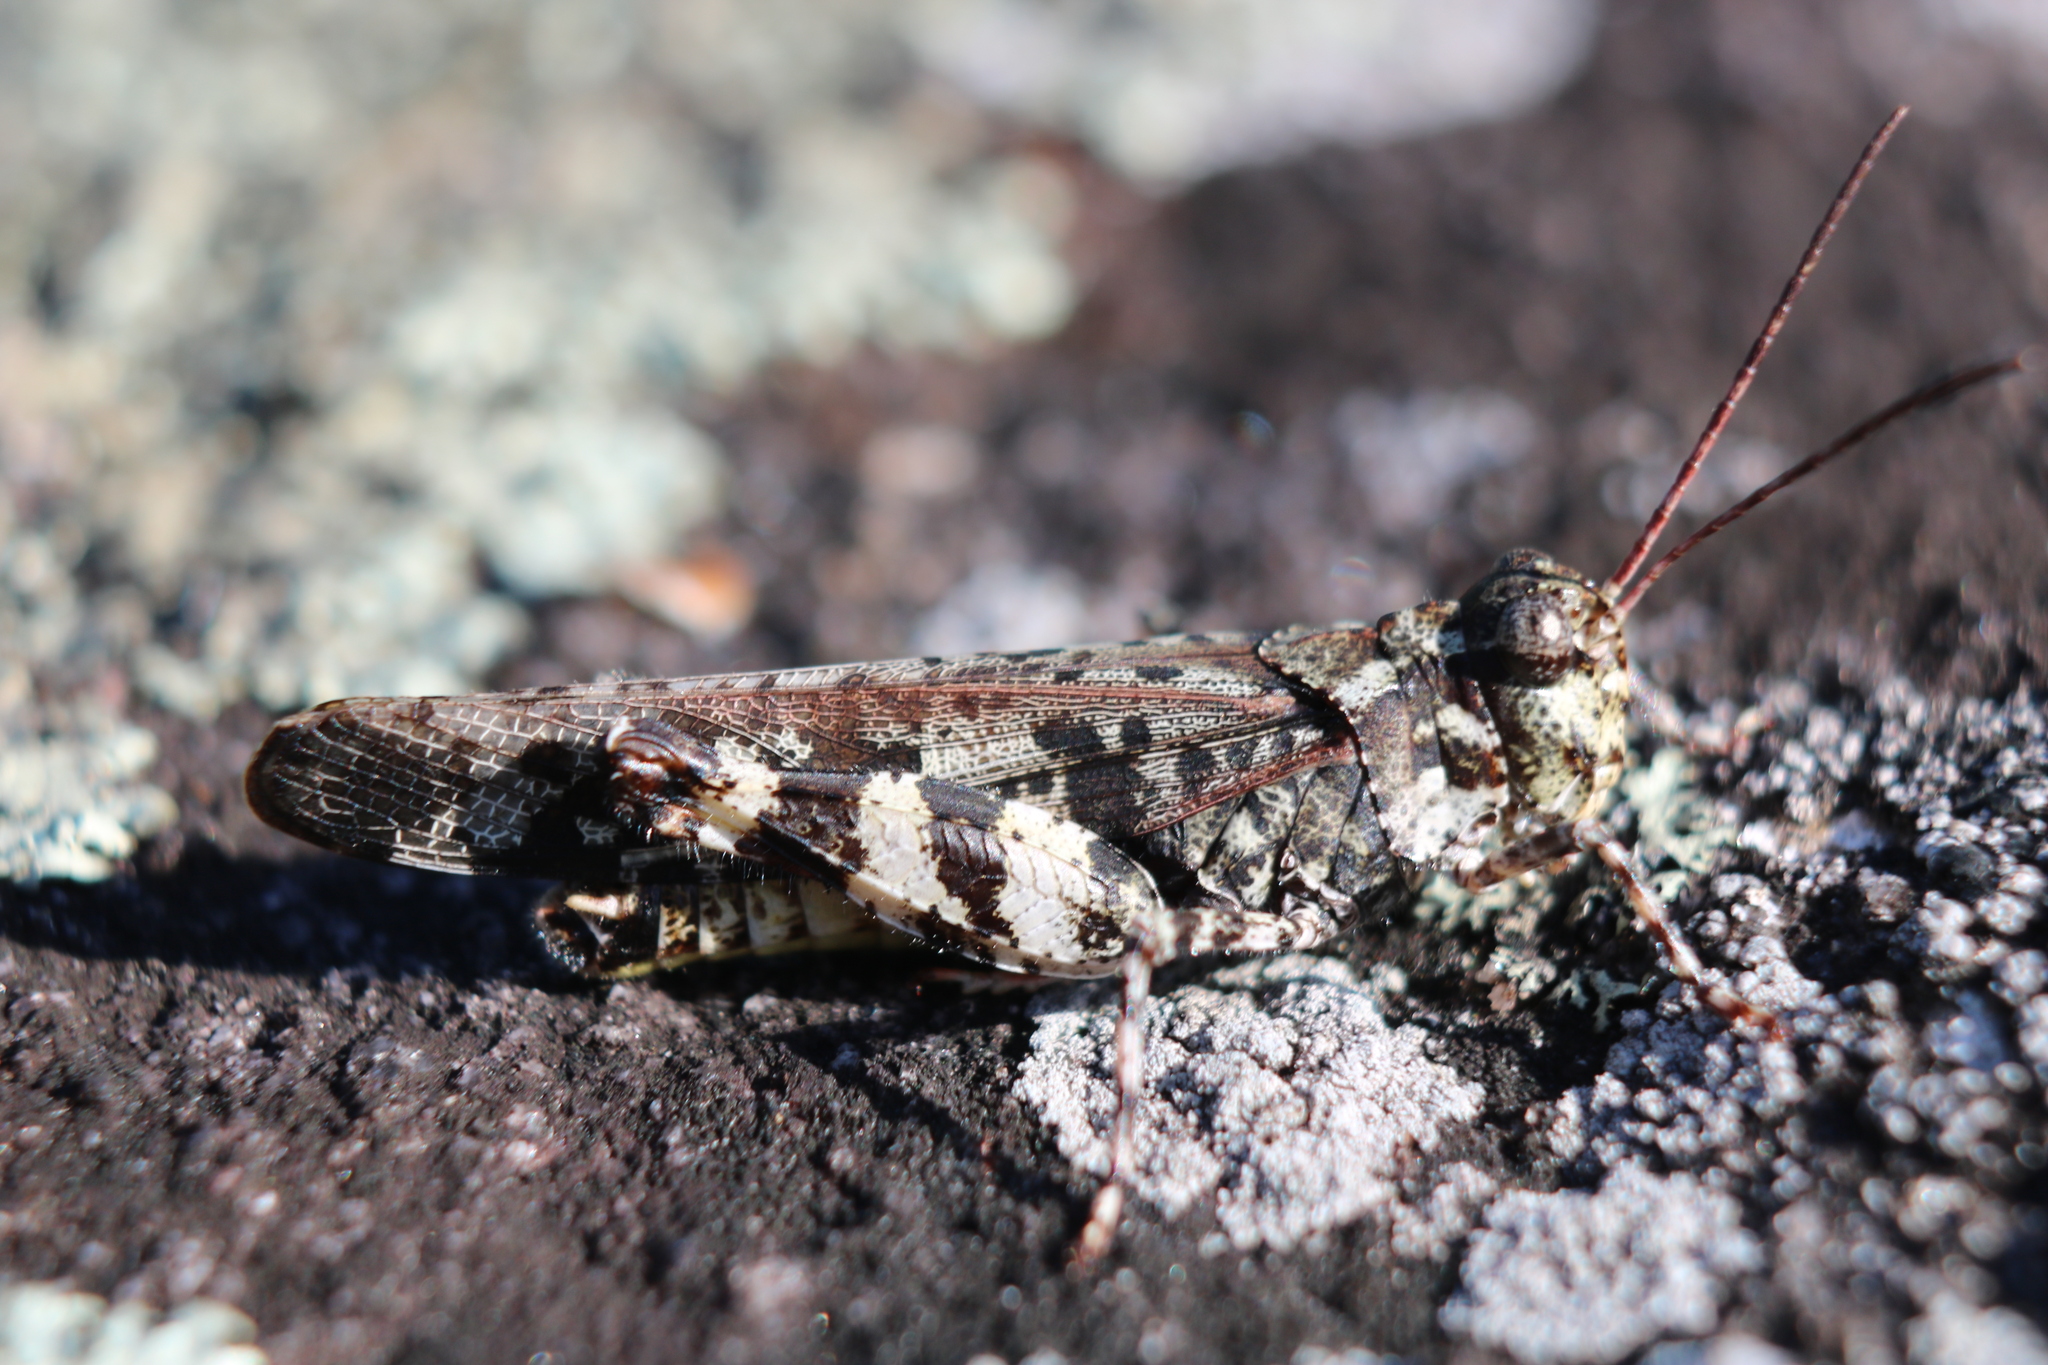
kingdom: Animalia
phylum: Arthropoda
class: Insecta
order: Orthoptera
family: Acrididae
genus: Spharagemon
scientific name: Spharagemon marmoratum
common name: Marbled grasshopper
